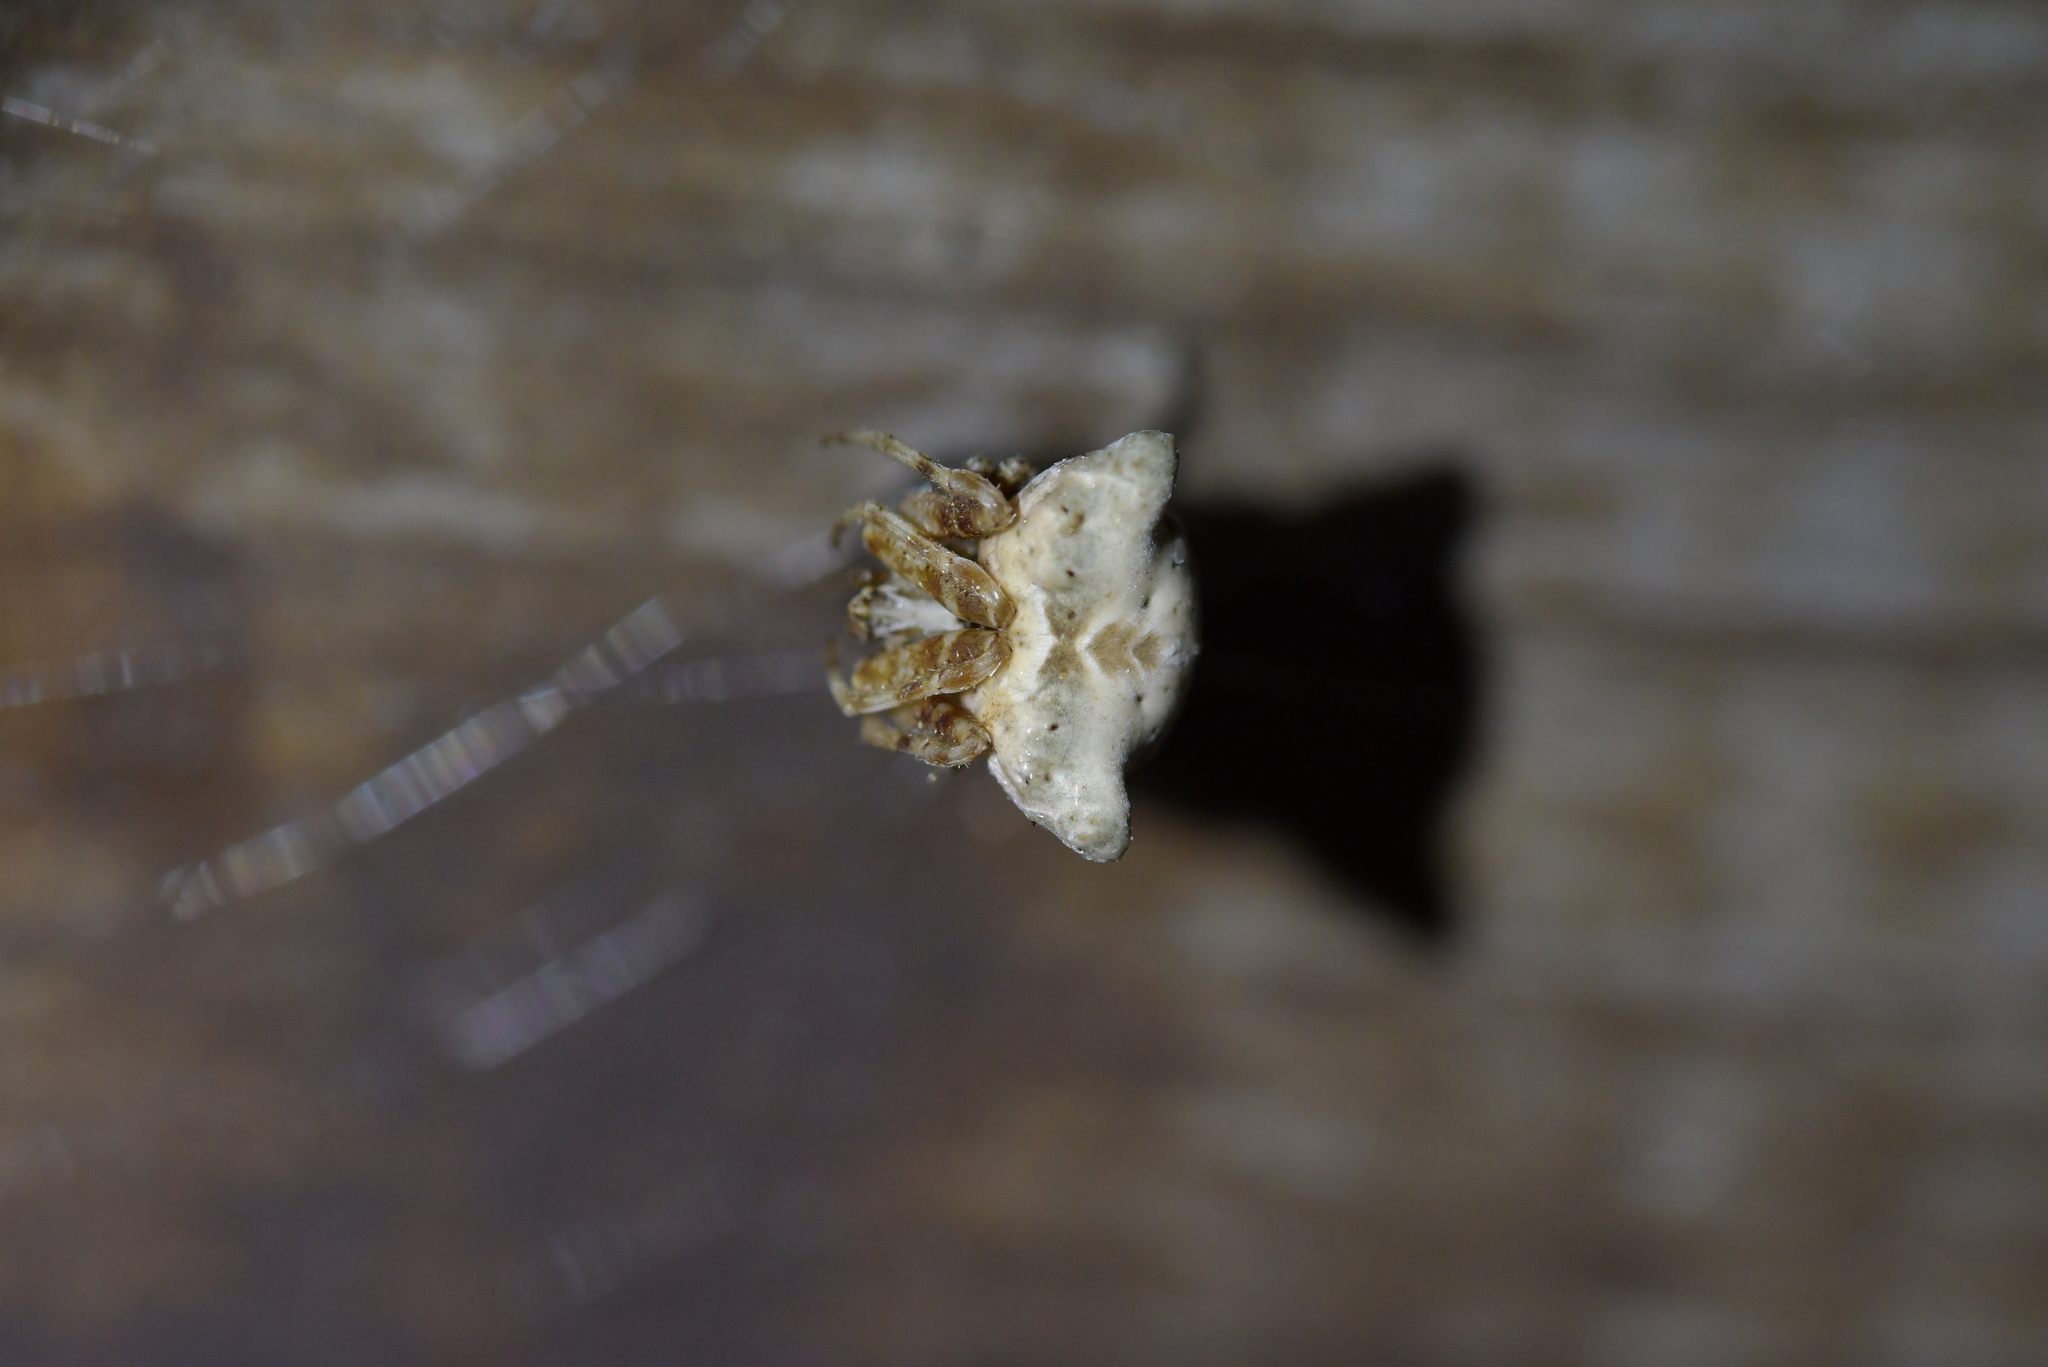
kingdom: Animalia
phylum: Arthropoda
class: Arachnida
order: Araneae
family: Araneidae
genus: Celaenia
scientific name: Celaenia olivacea
